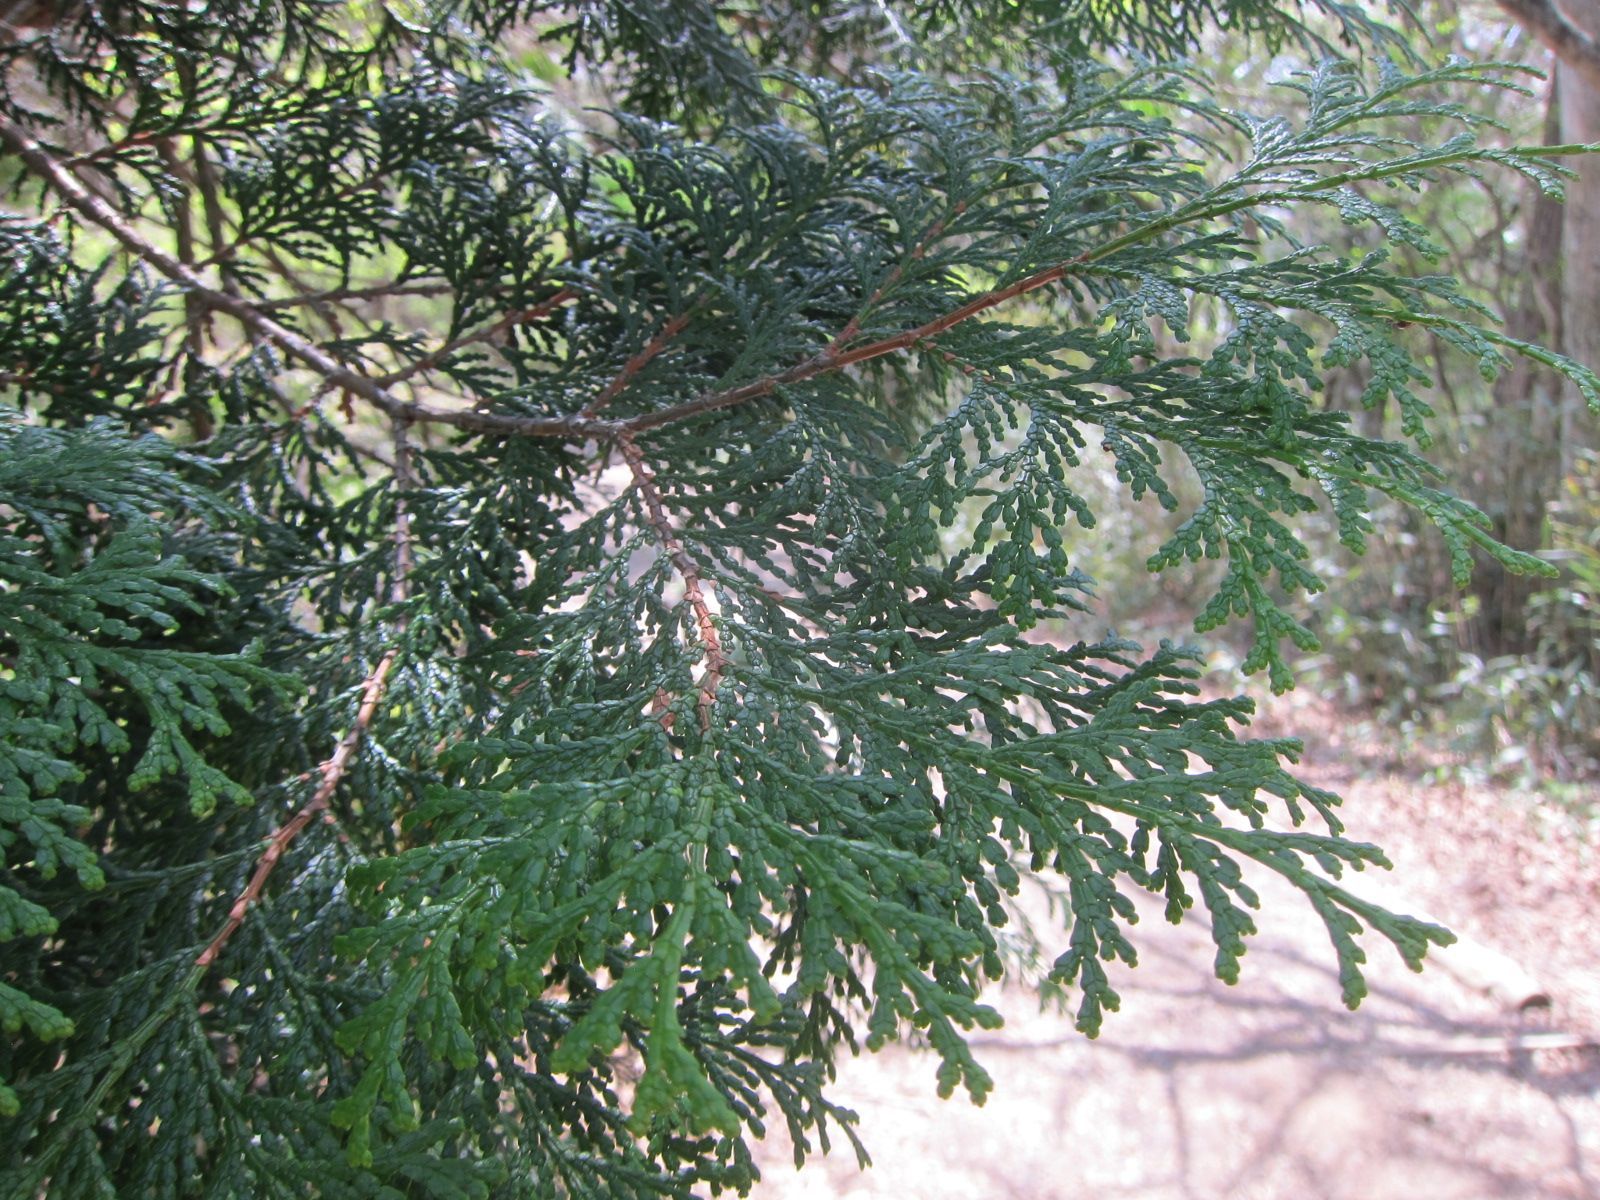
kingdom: Plantae
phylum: Tracheophyta
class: Pinopsida
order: Pinales
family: Cupressaceae
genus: Chamaecyparis
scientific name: Chamaecyparis obtusa
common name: Hinoki false cypress
